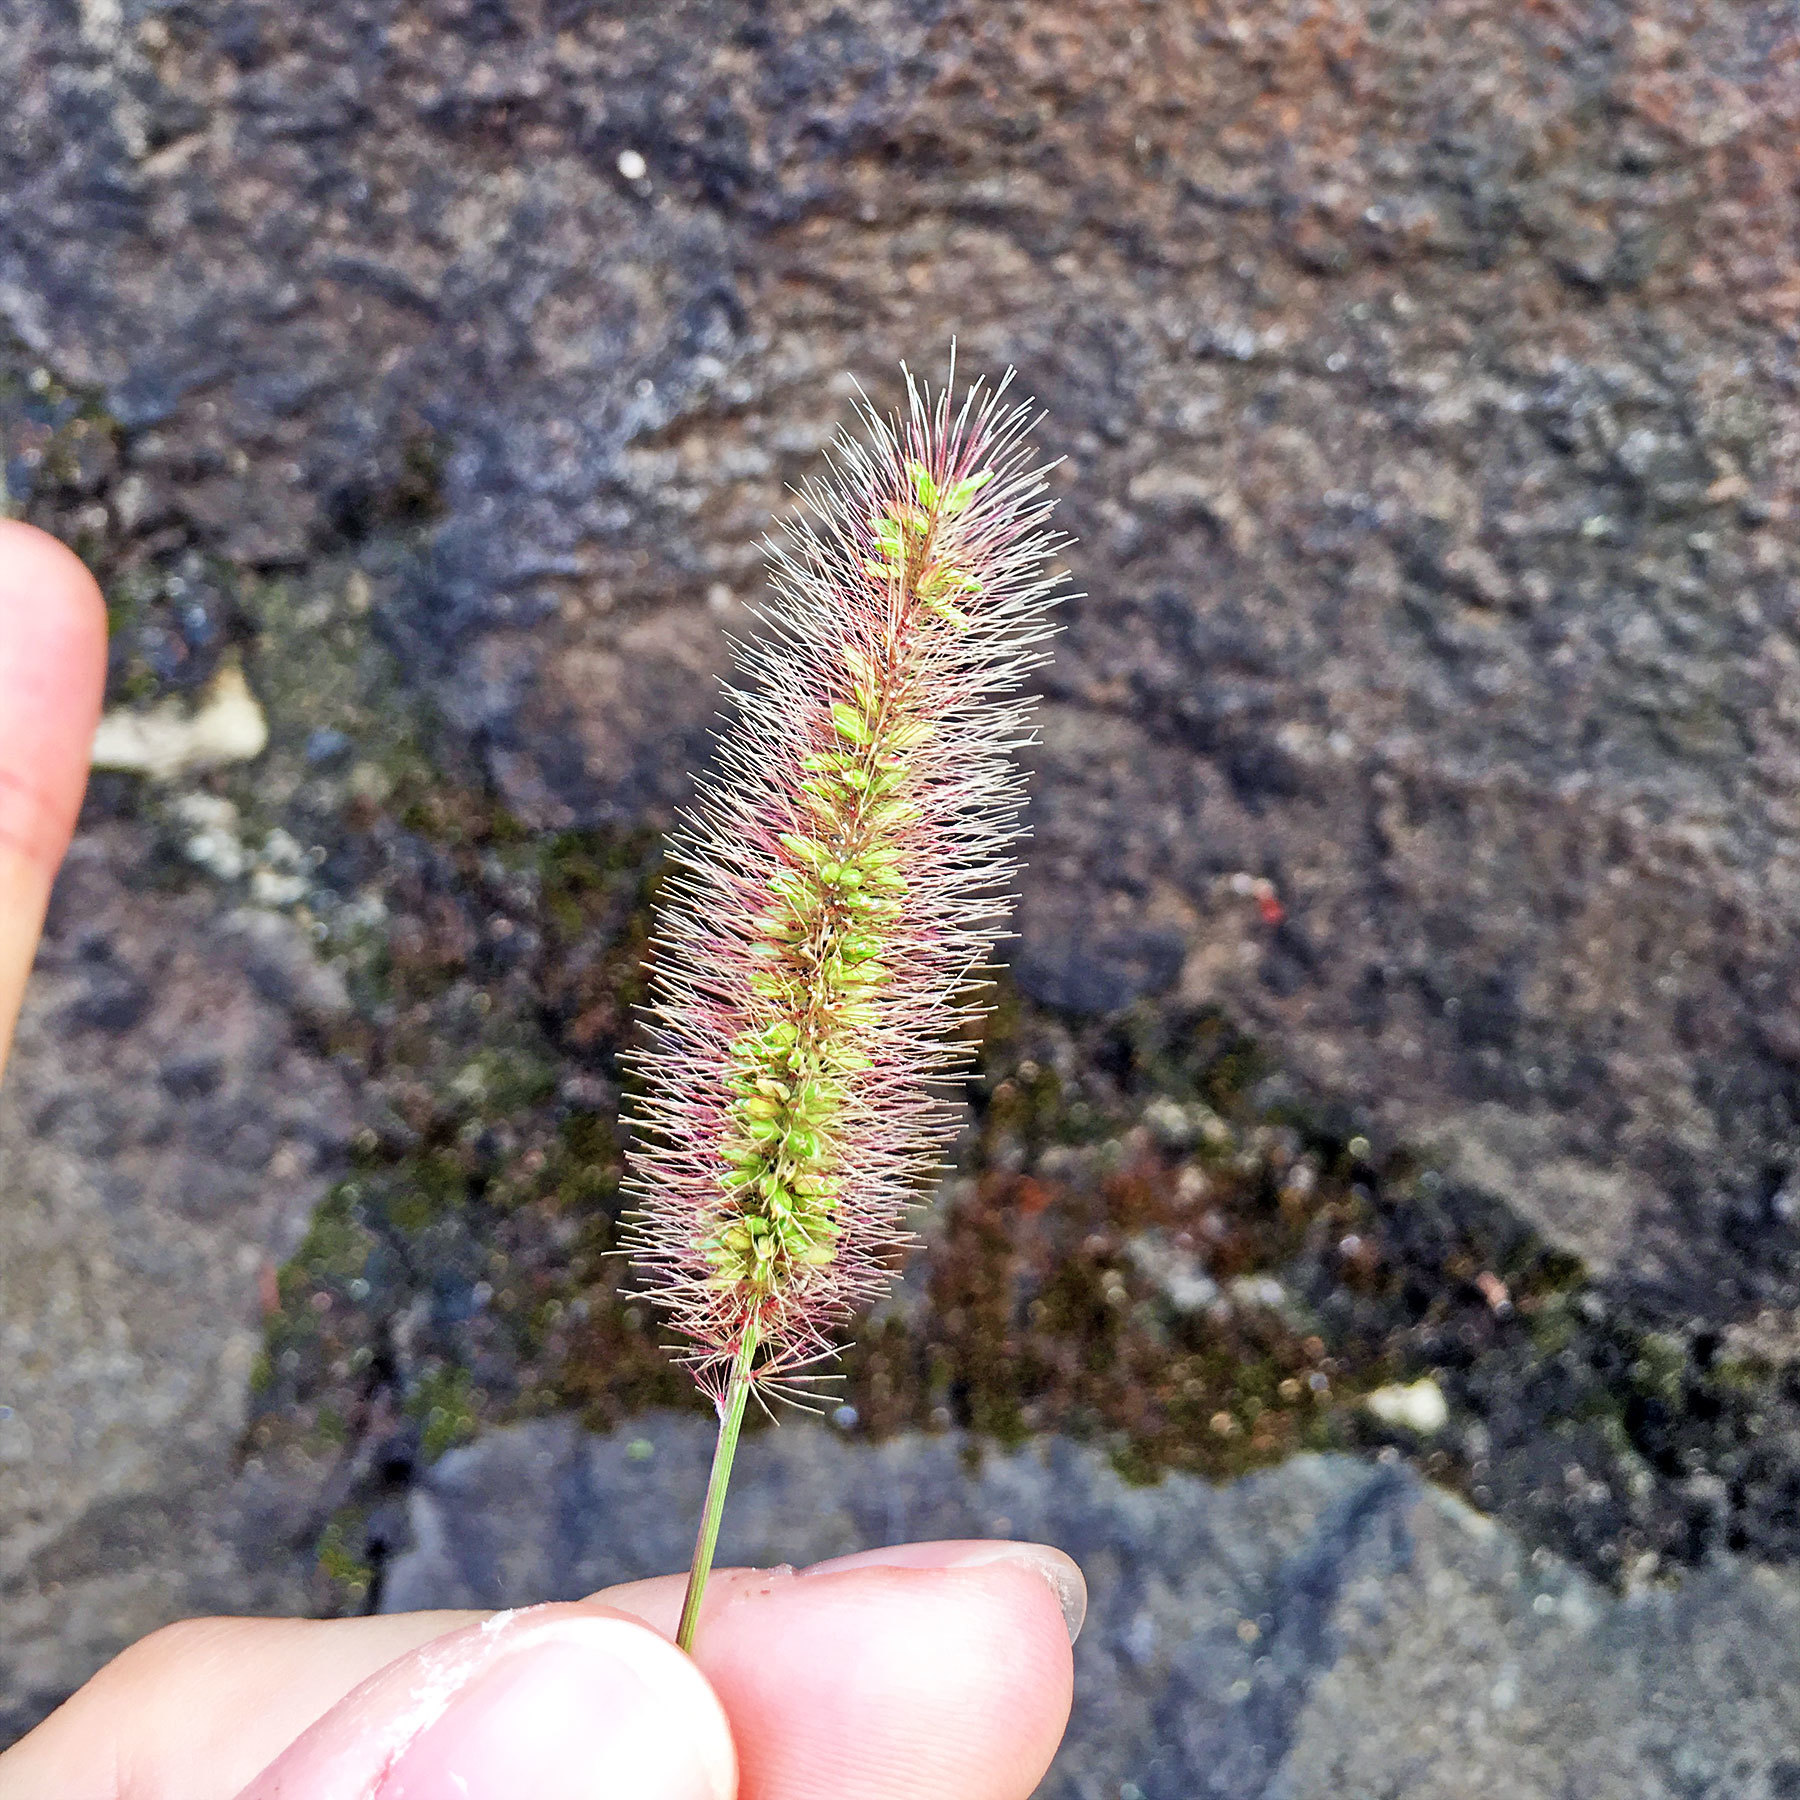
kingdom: Plantae
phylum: Tracheophyta
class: Liliopsida
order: Poales
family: Poaceae
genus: Setaria
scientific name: Setaria viridis
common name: Green bristlegrass
